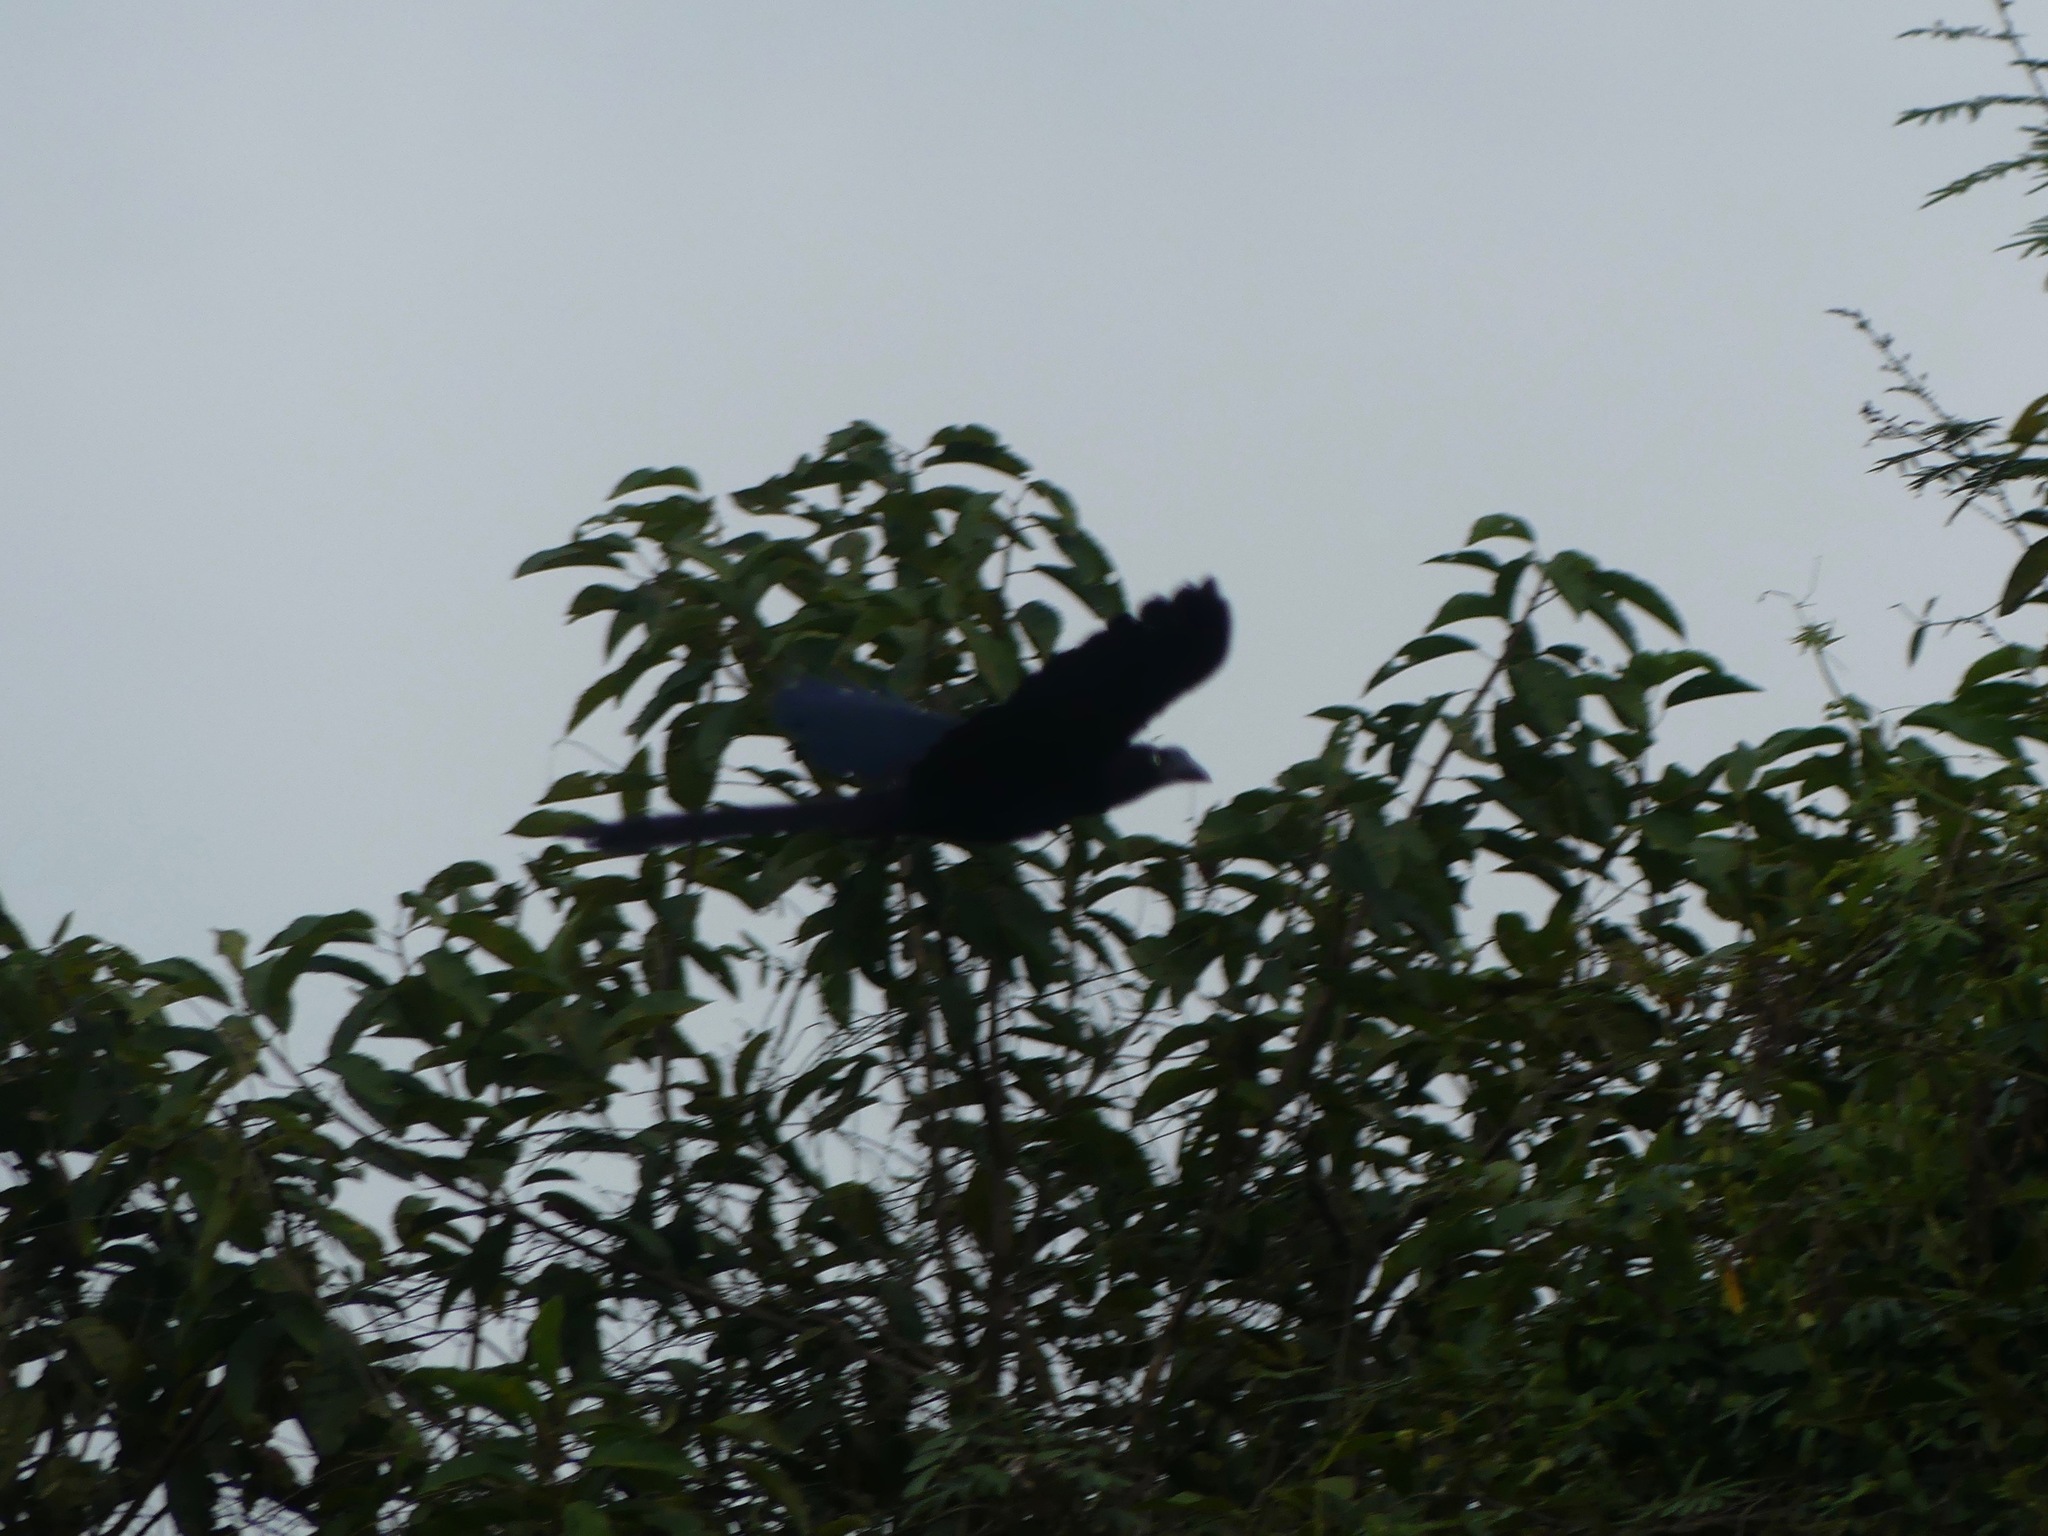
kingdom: Animalia
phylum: Chordata
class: Aves
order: Cuculiformes
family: Cuculidae
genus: Crotophaga
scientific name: Crotophaga major
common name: Greater ani
